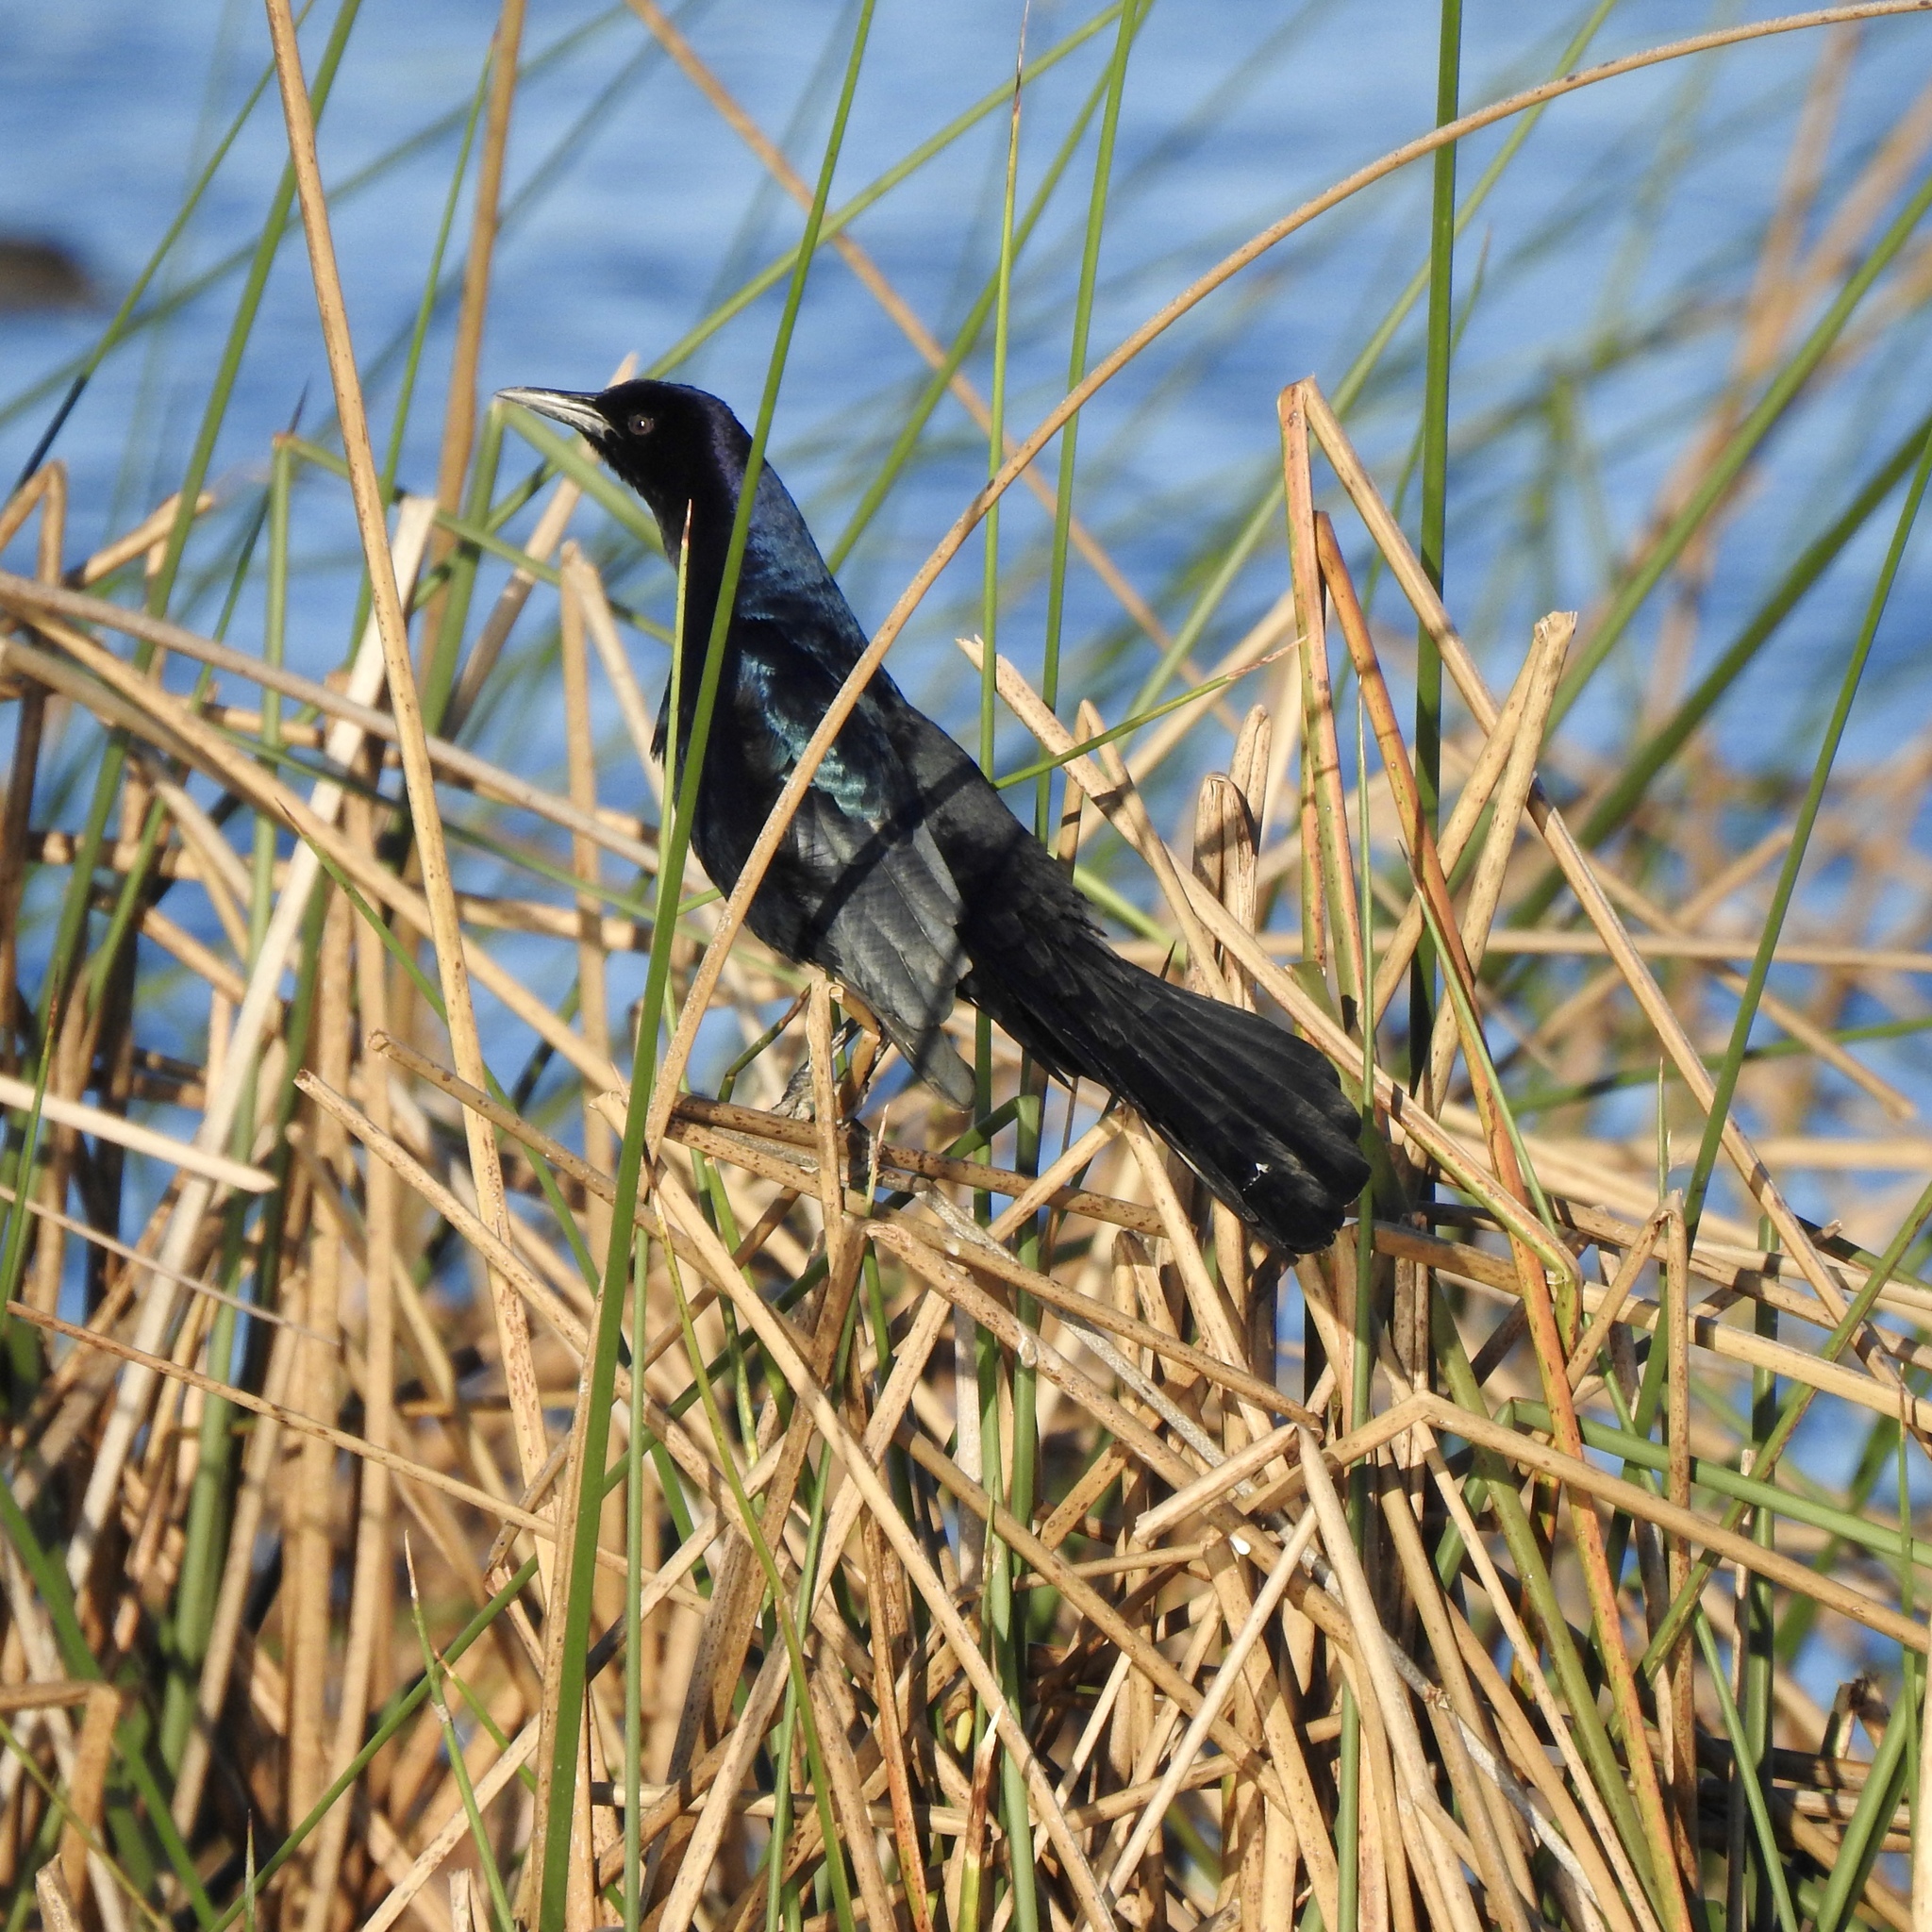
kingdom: Animalia
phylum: Chordata
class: Aves
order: Passeriformes
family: Icteridae
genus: Quiscalus
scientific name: Quiscalus major
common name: Boat-tailed grackle
